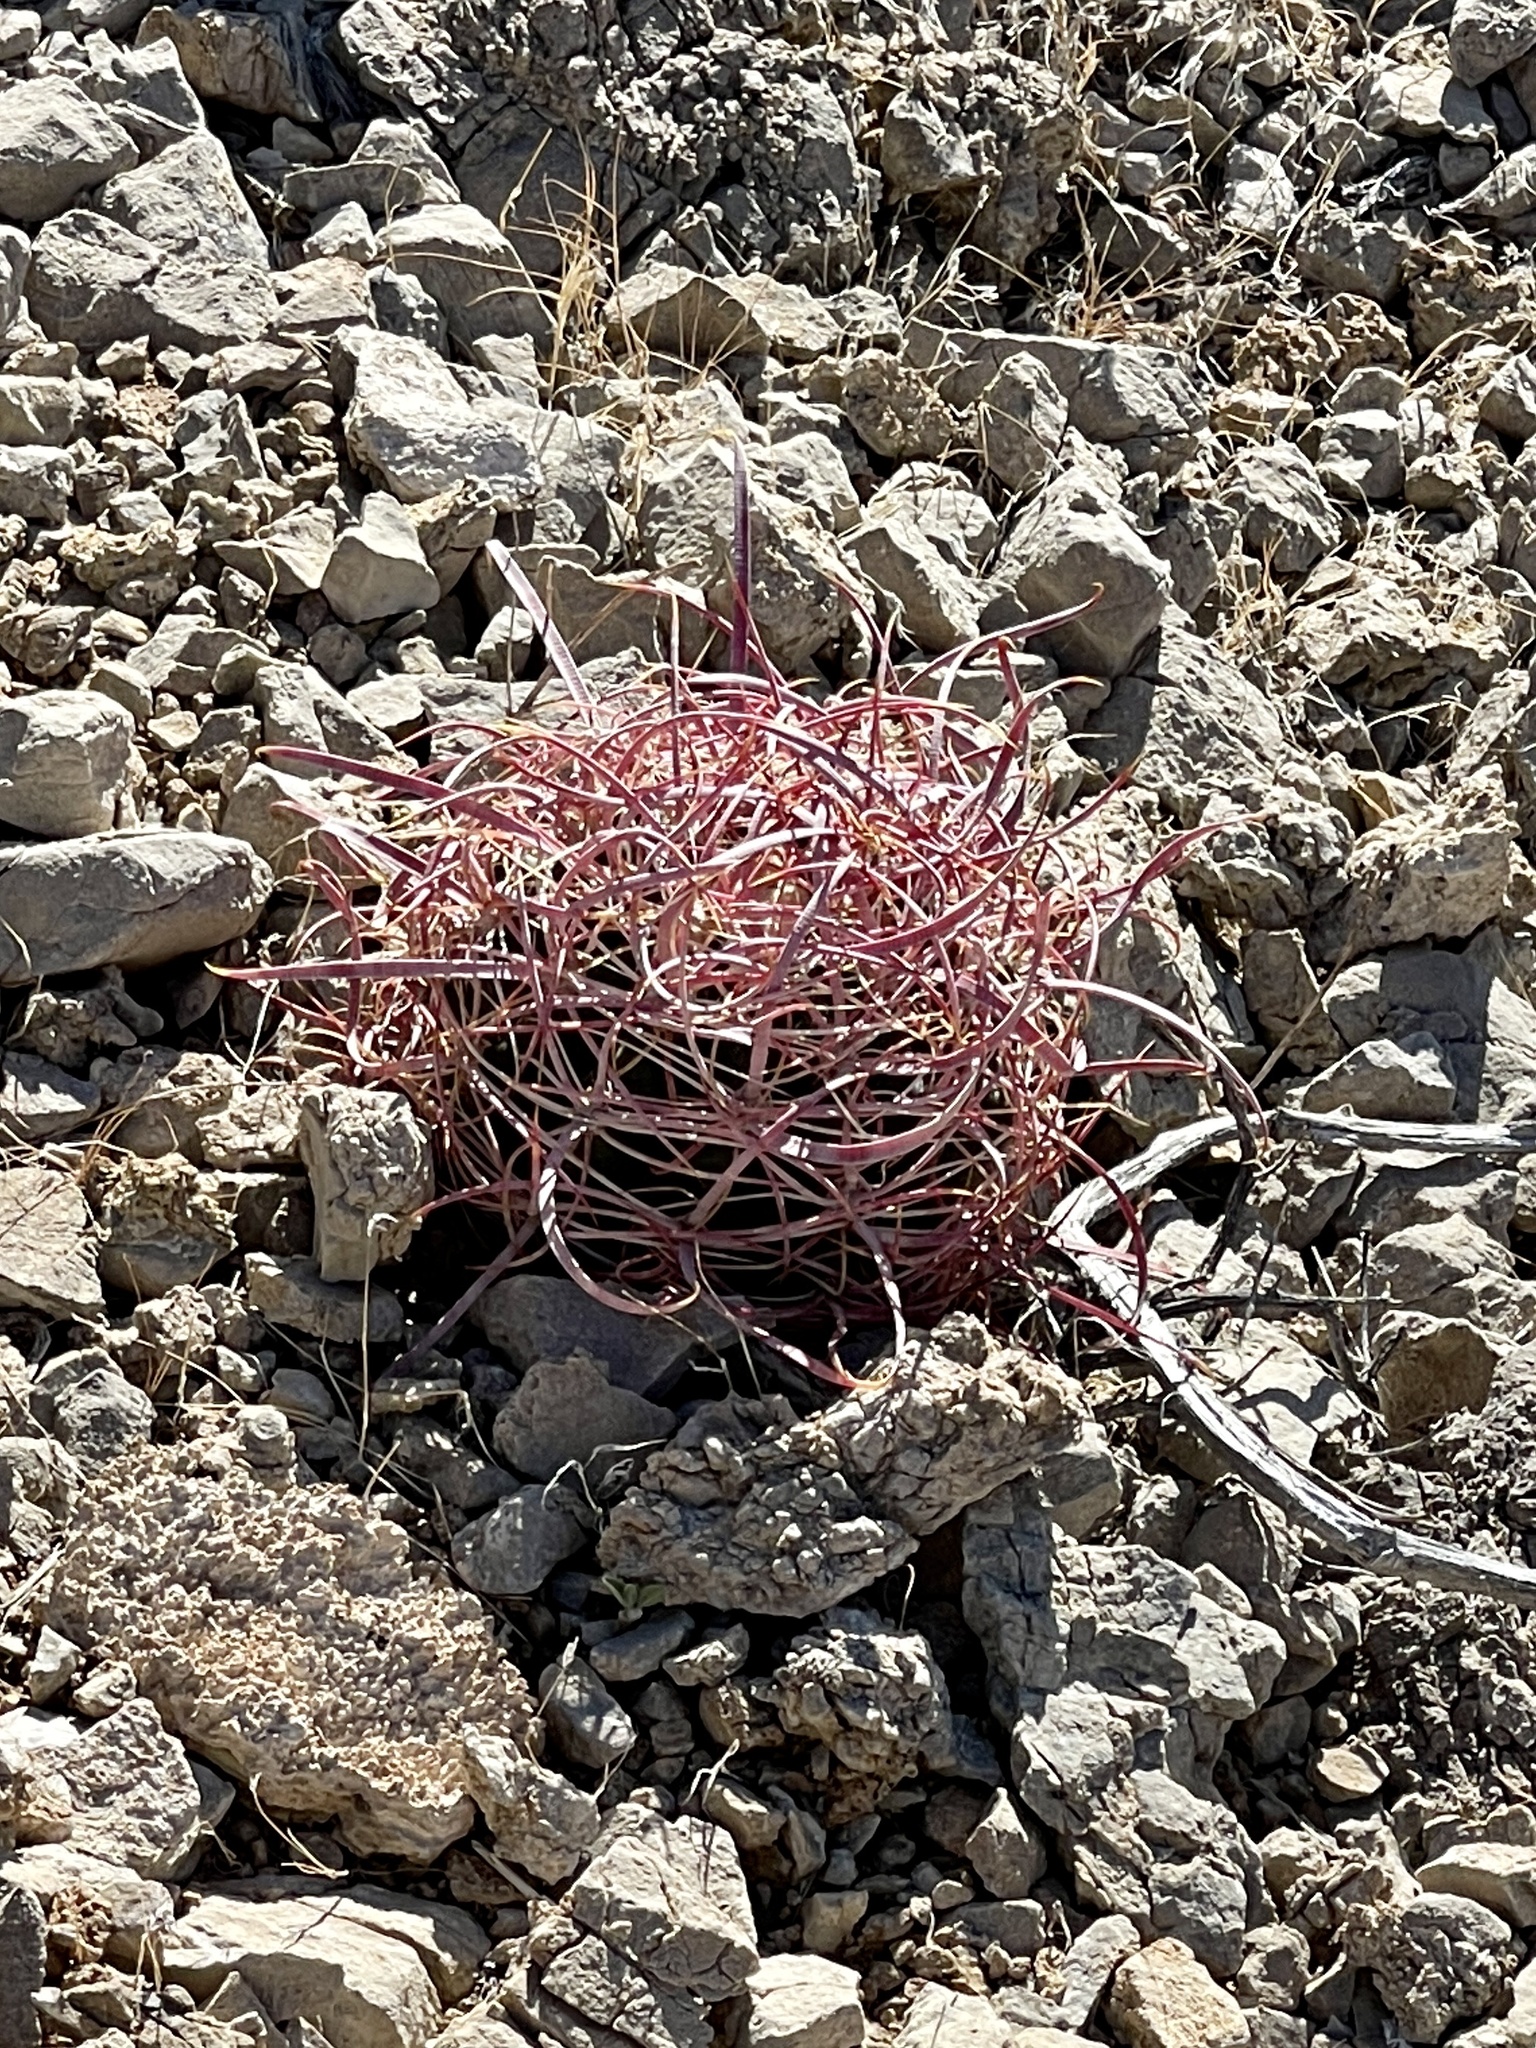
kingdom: Plantae
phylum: Tracheophyta
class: Magnoliopsida
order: Caryophyllales
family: Cactaceae
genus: Ferocactus
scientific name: Ferocactus cylindraceus
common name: California barrel cactus
